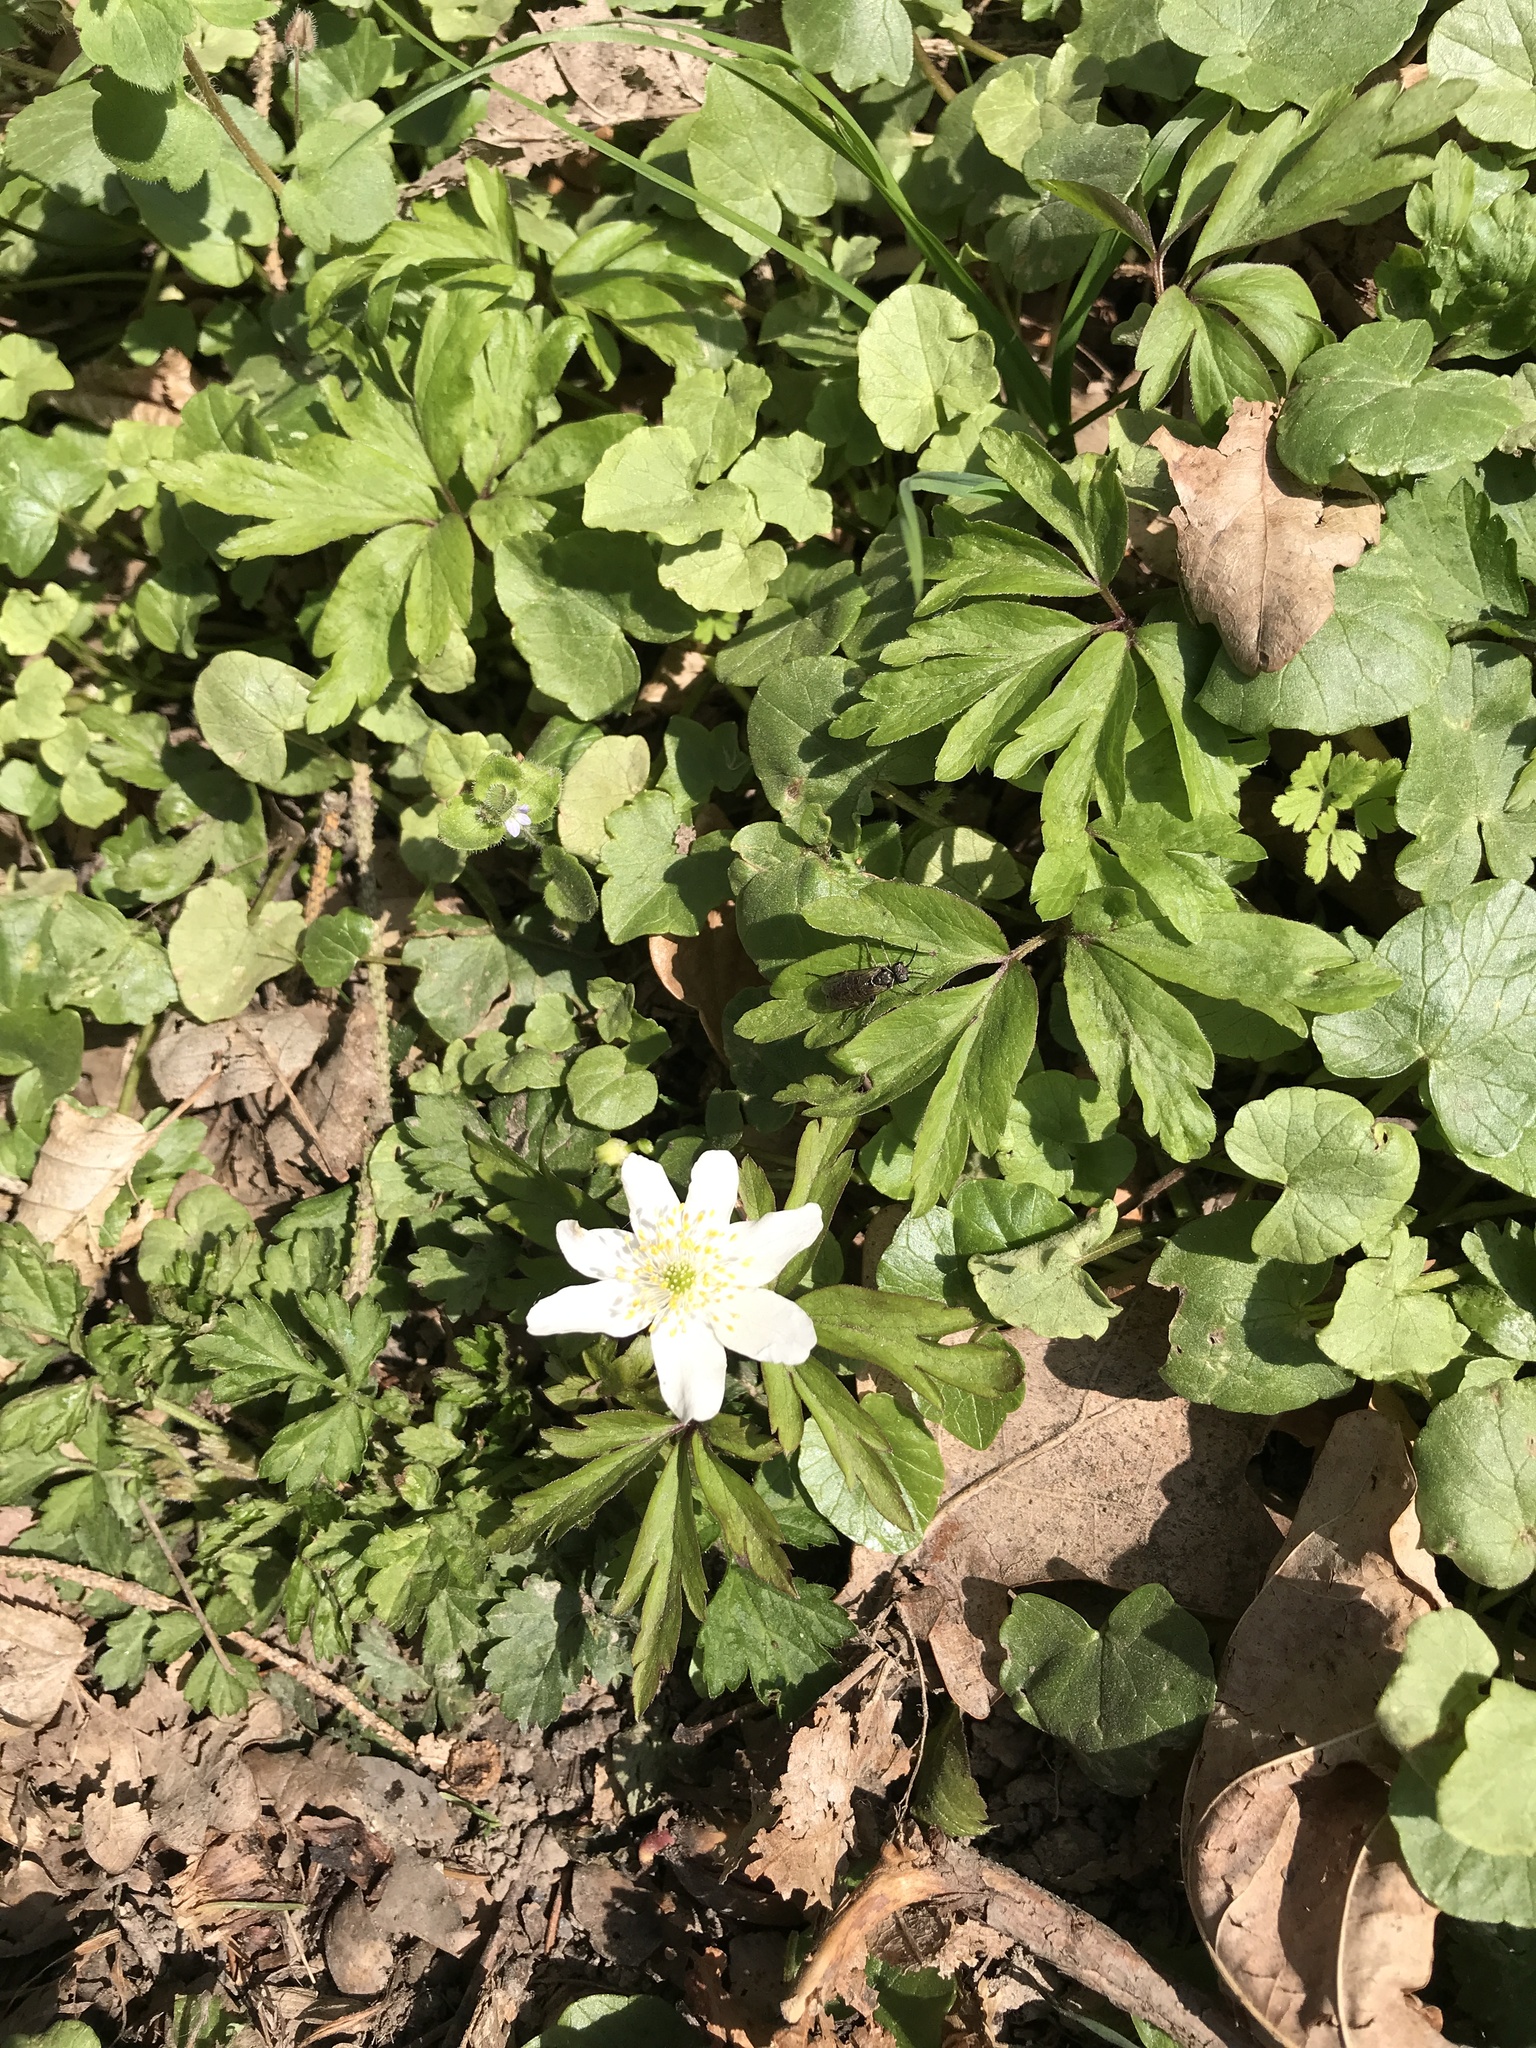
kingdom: Plantae
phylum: Tracheophyta
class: Magnoliopsida
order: Ranunculales
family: Ranunculaceae
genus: Anemone
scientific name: Anemone nemorosa
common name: Wood anemone
